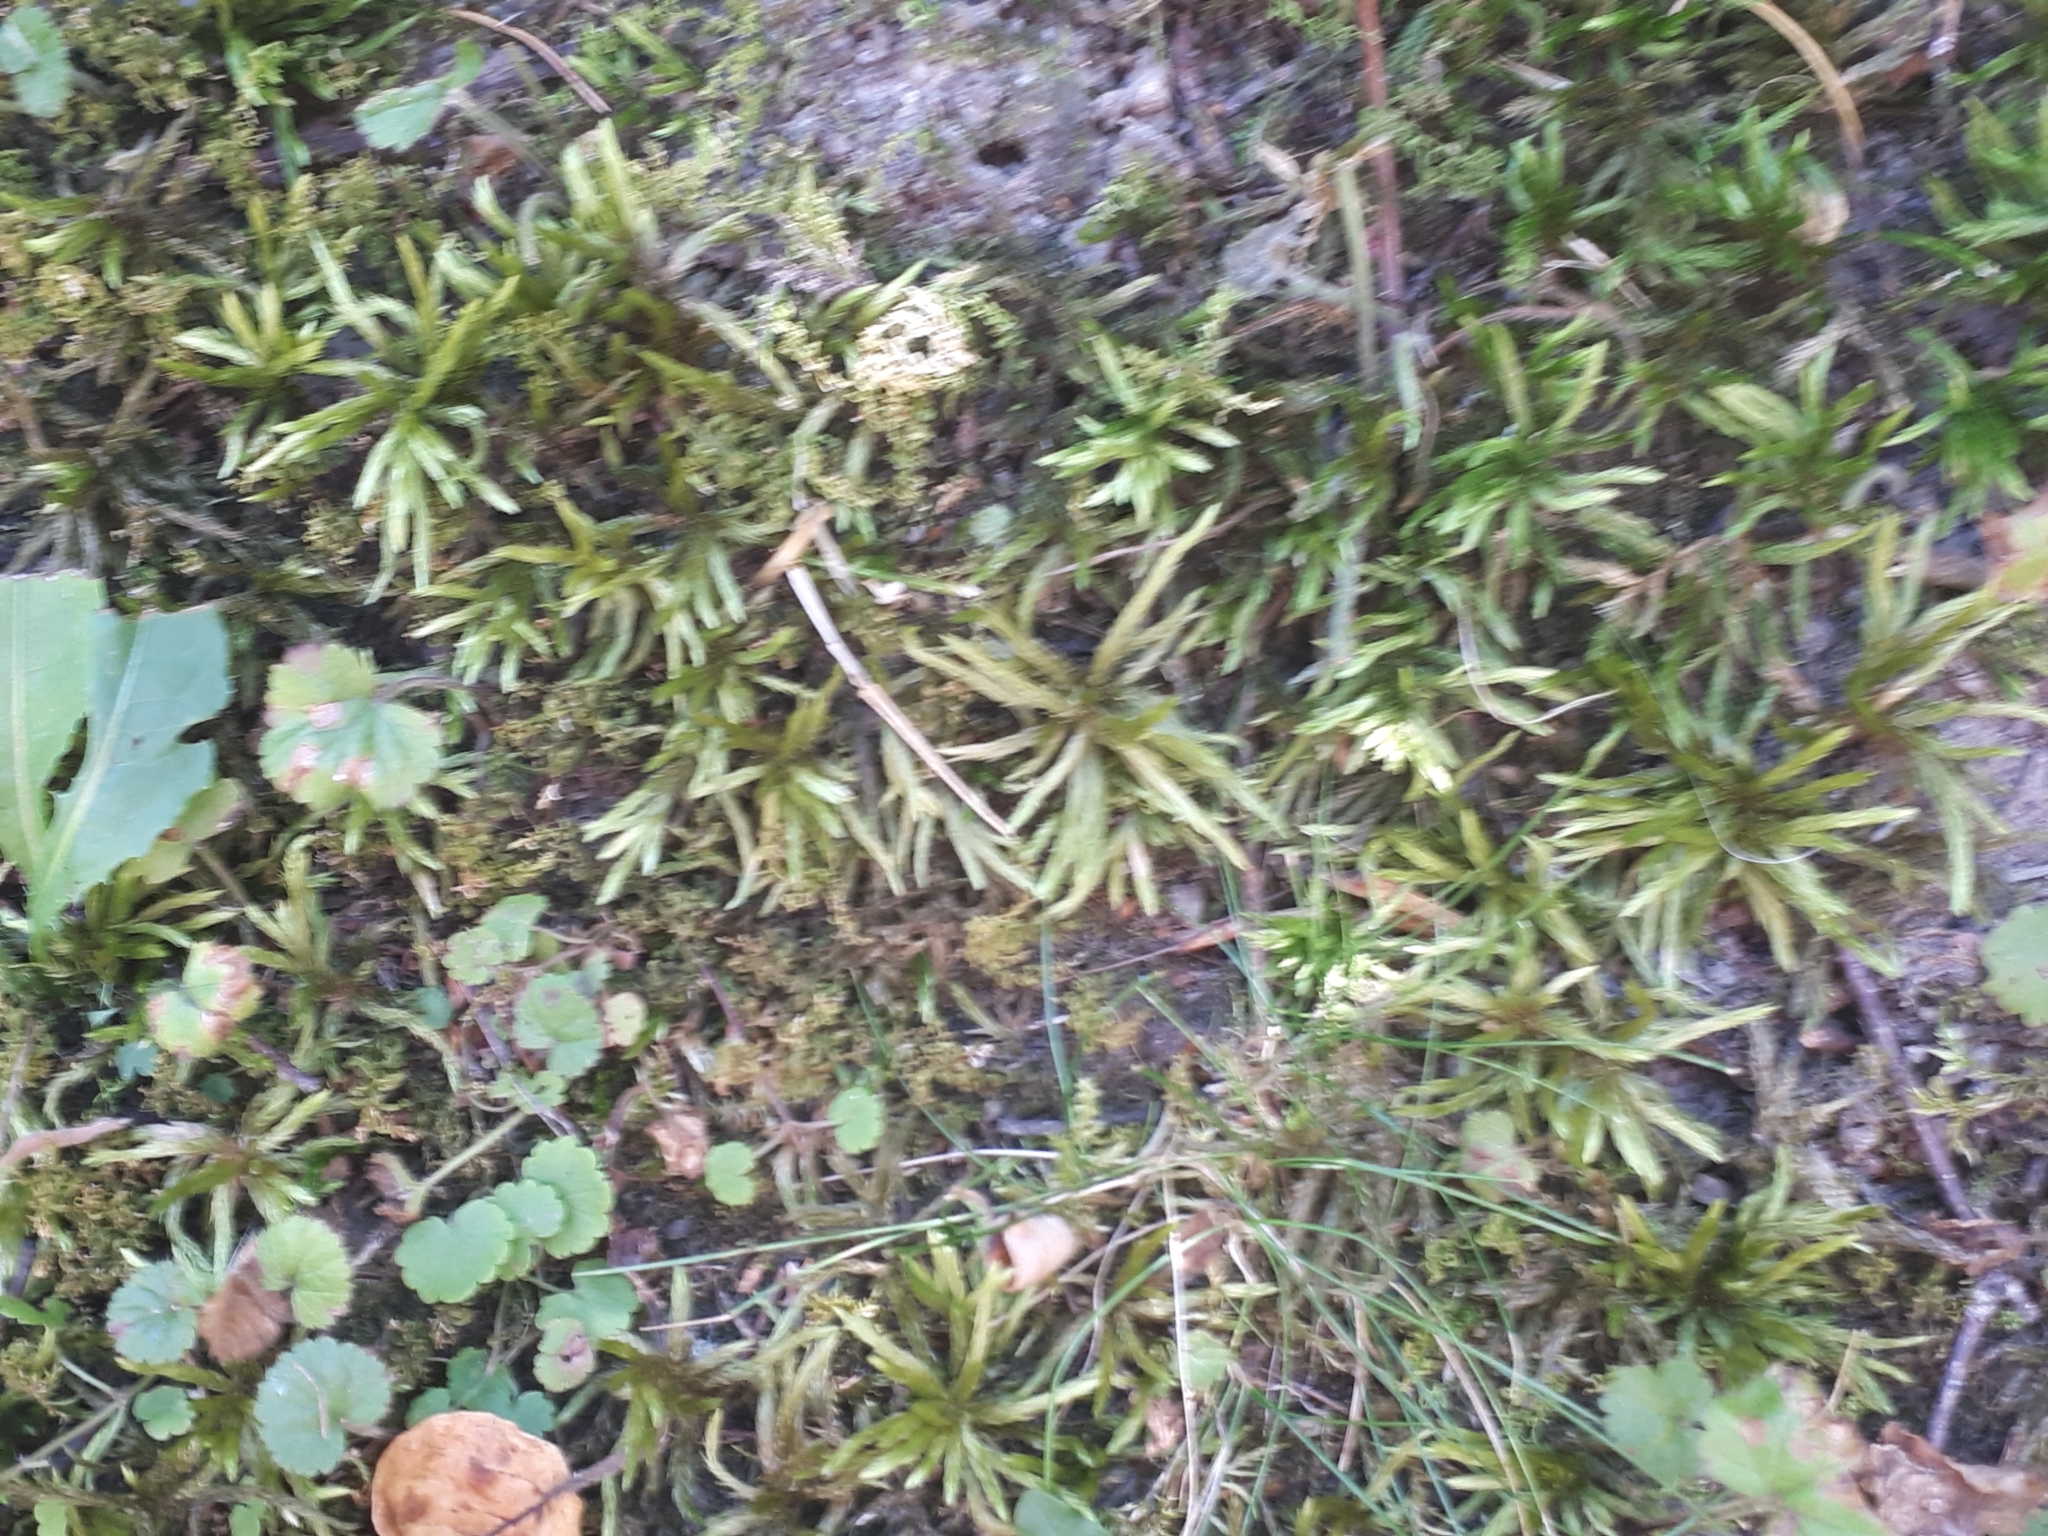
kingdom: Plantae
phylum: Bryophyta
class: Bryopsida
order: Hypnales
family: Climaciaceae
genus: Climacium
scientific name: Climacium dendroides
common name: Northern tree moss
